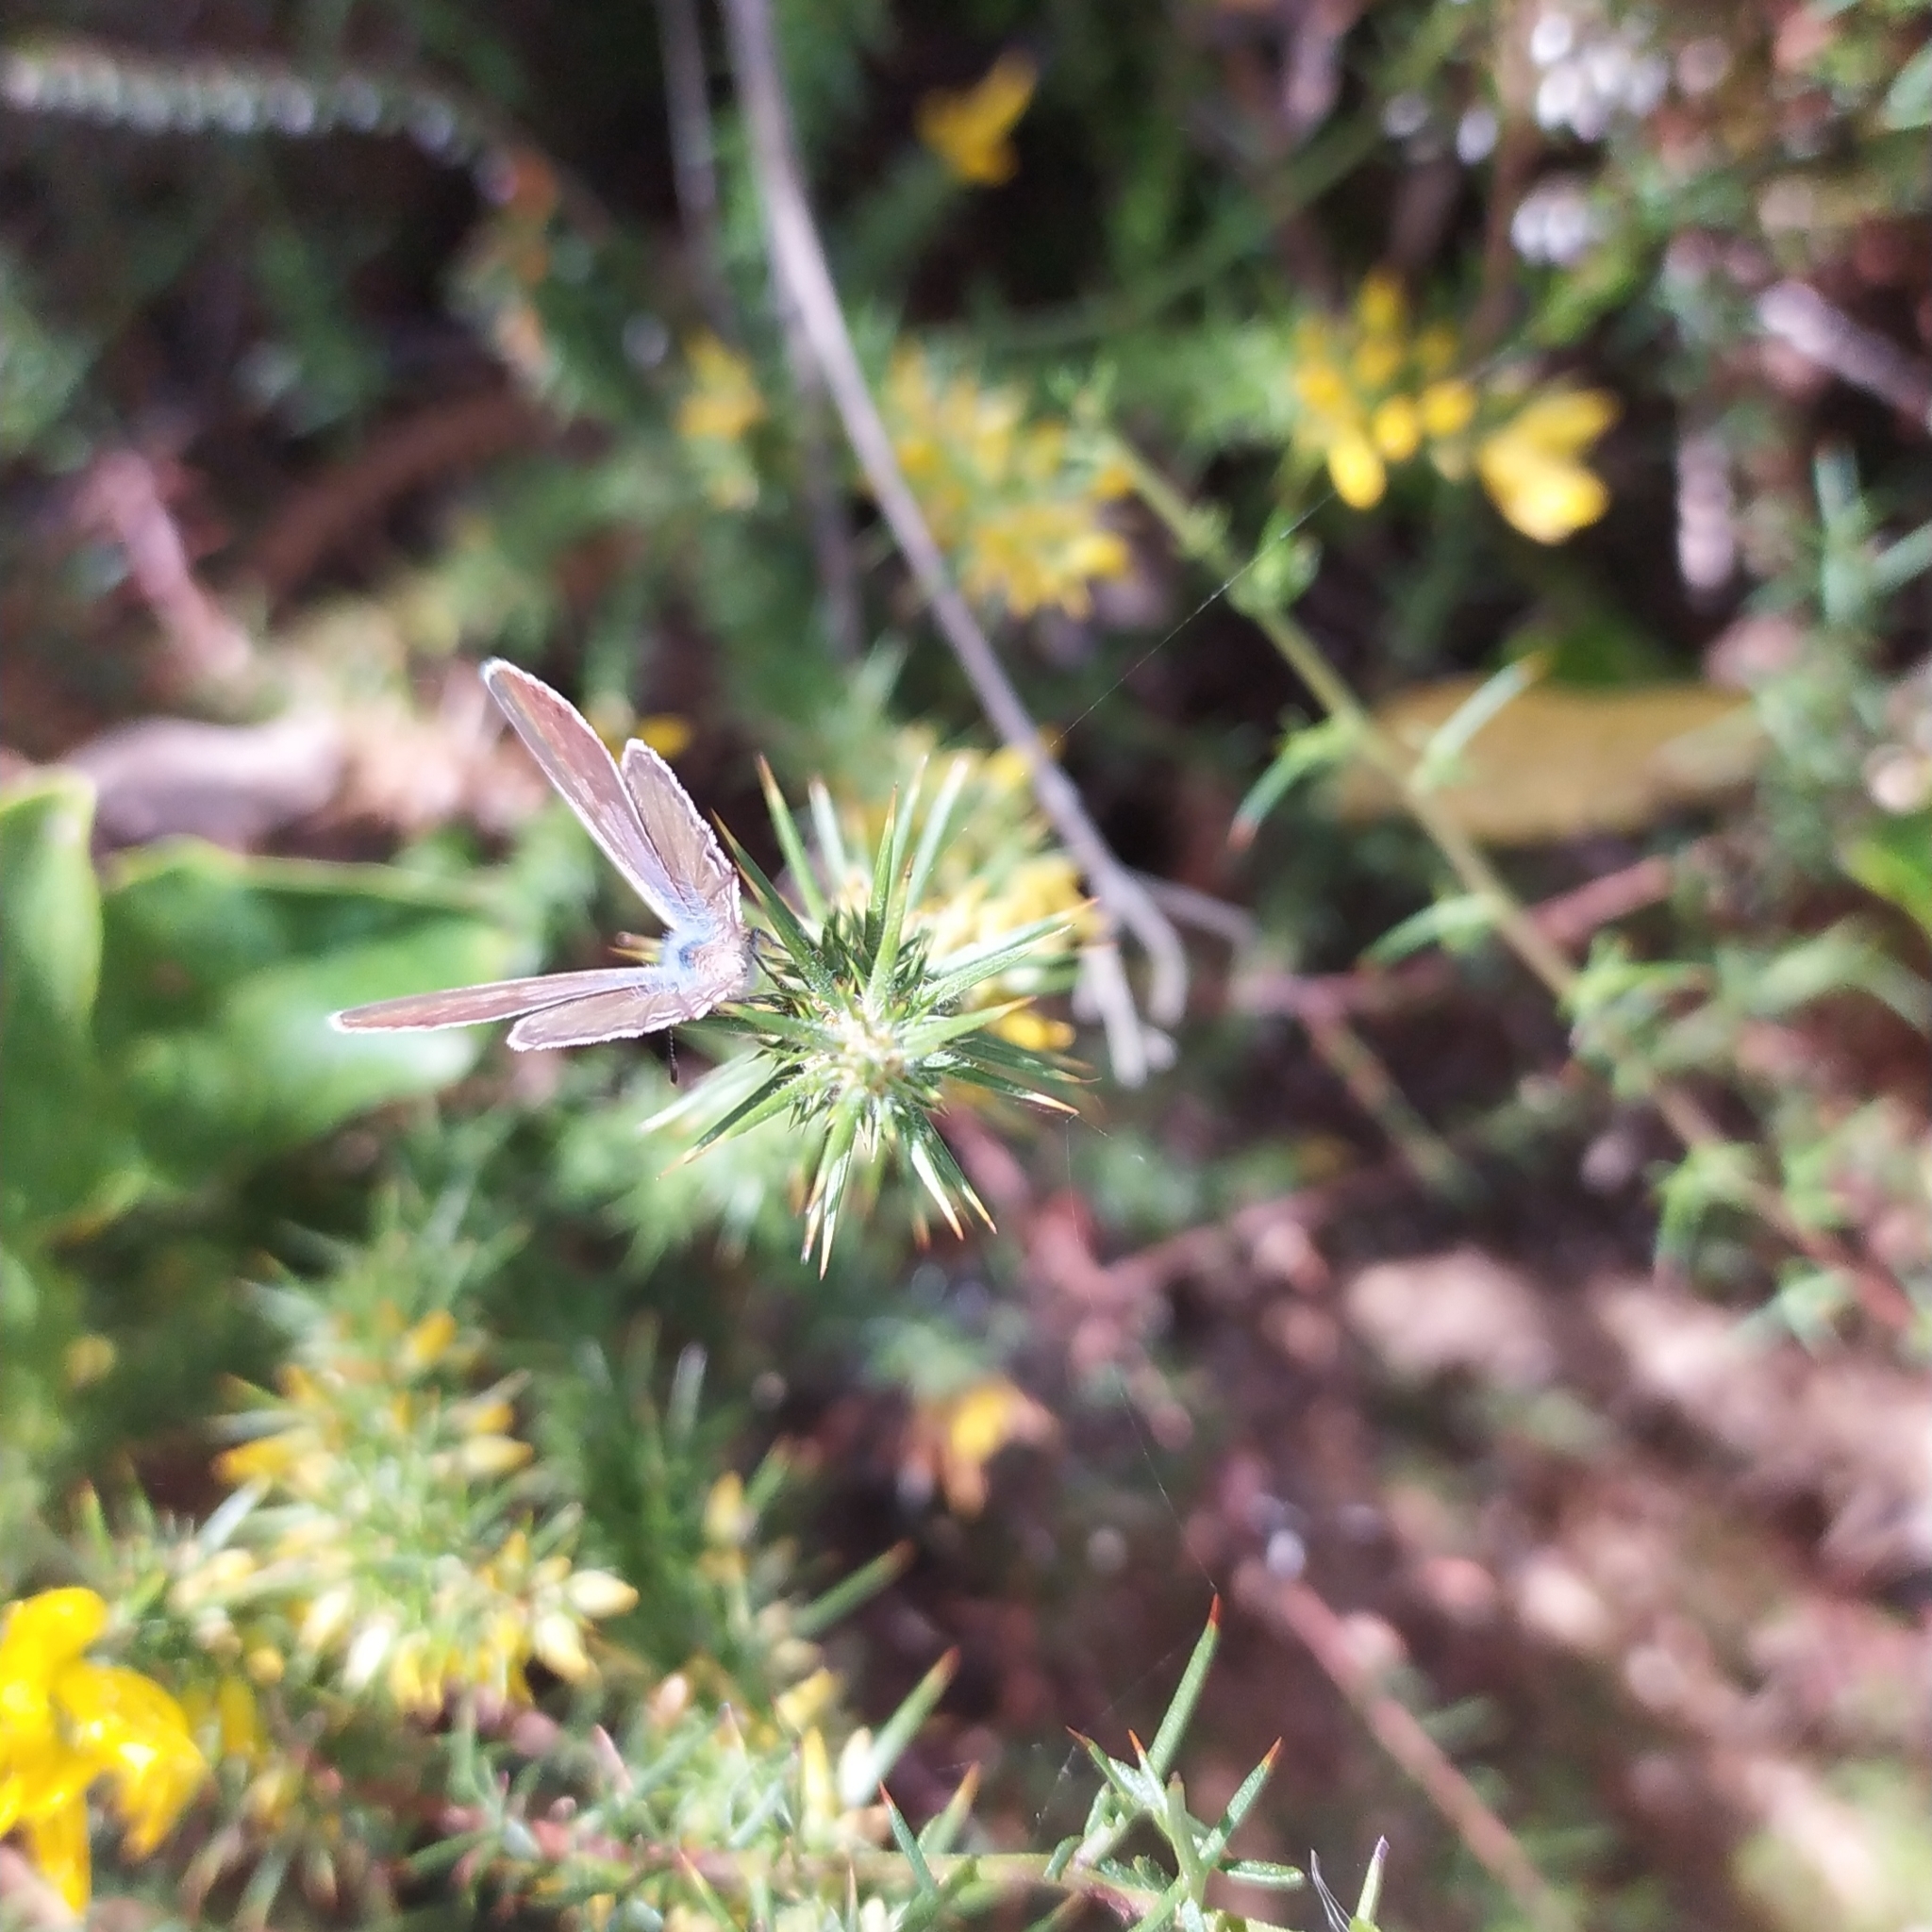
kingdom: Animalia
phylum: Arthropoda
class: Insecta
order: Lepidoptera
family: Lycaenidae
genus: Leptotes
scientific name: Leptotes pirithous
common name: Lang's short-tailed blue
